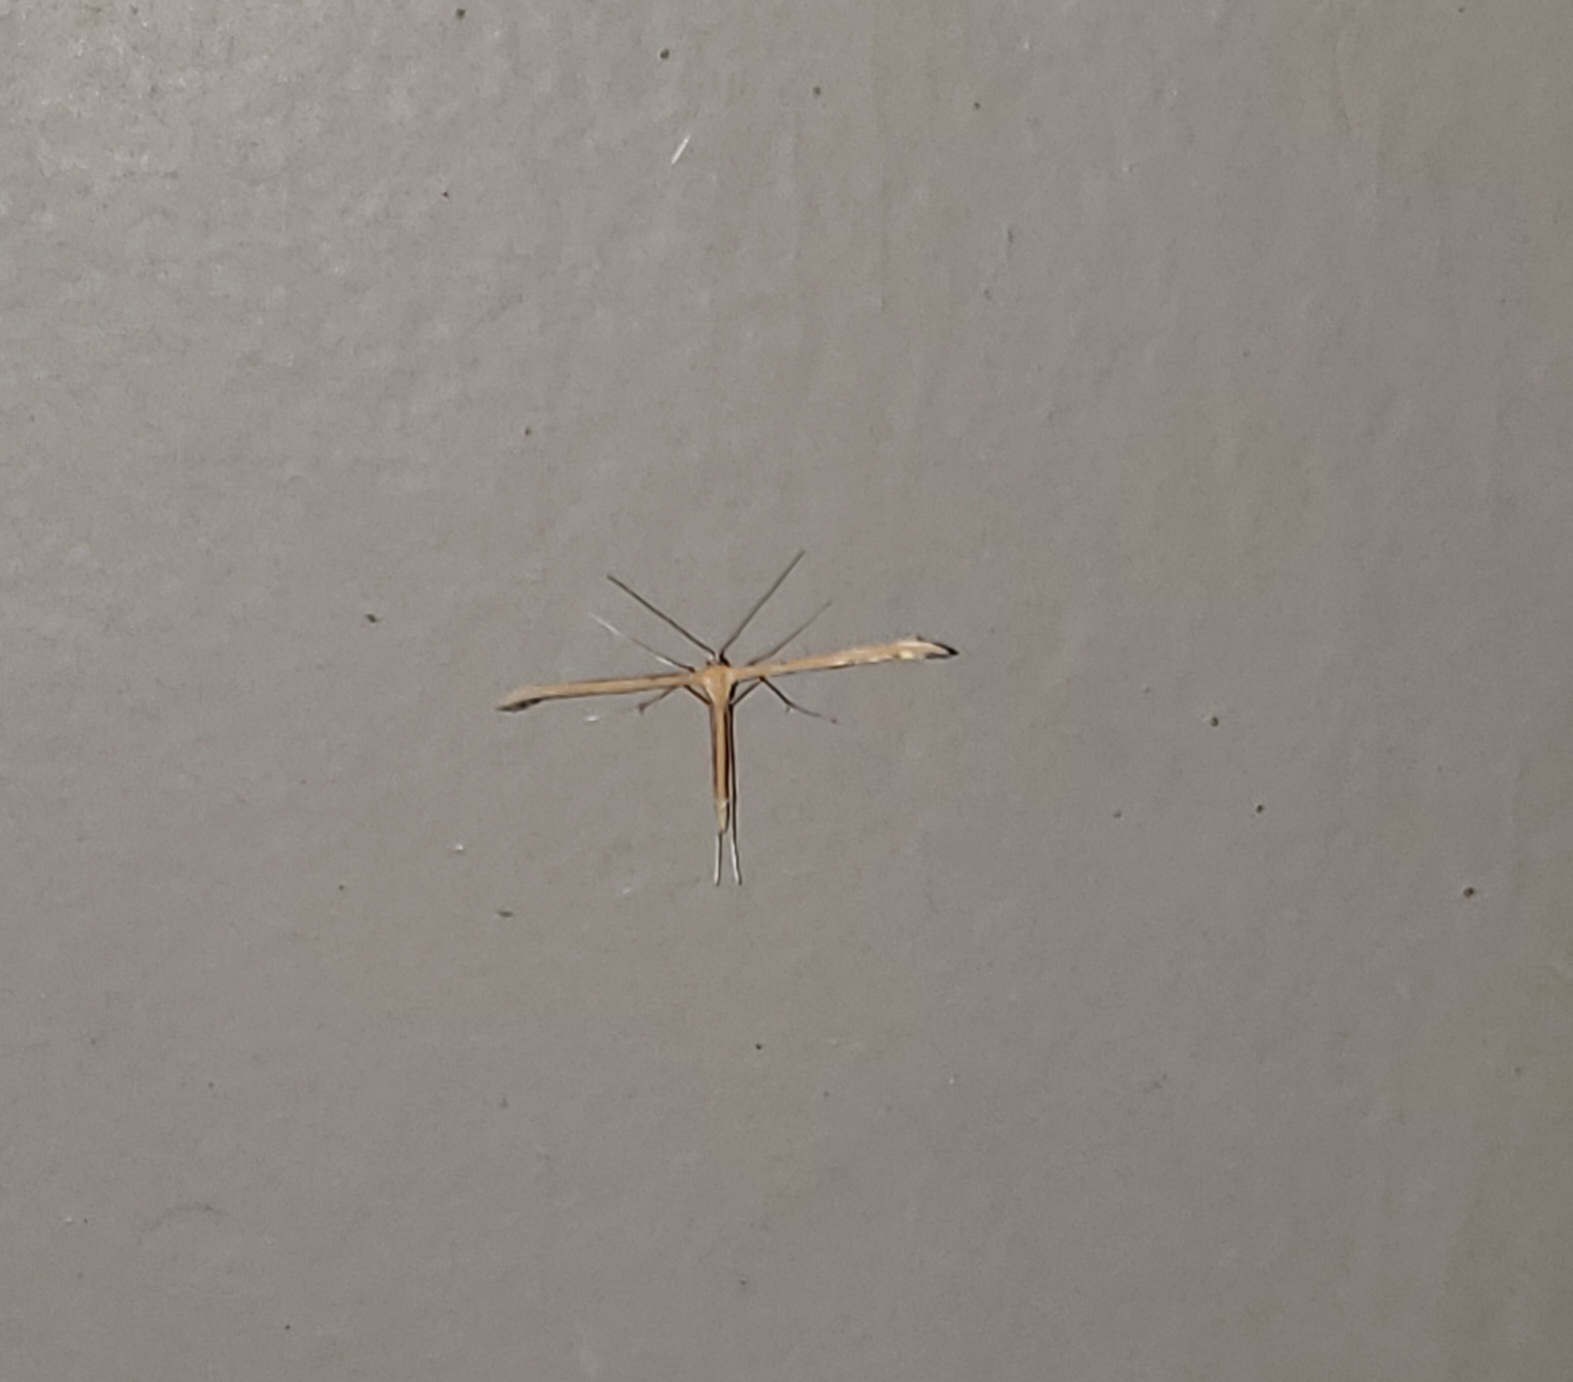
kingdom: Animalia
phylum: Arthropoda
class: Insecta
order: Lepidoptera
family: Pterophoridae
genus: Emmelina
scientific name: Emmelina monodactyla
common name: Common plume
